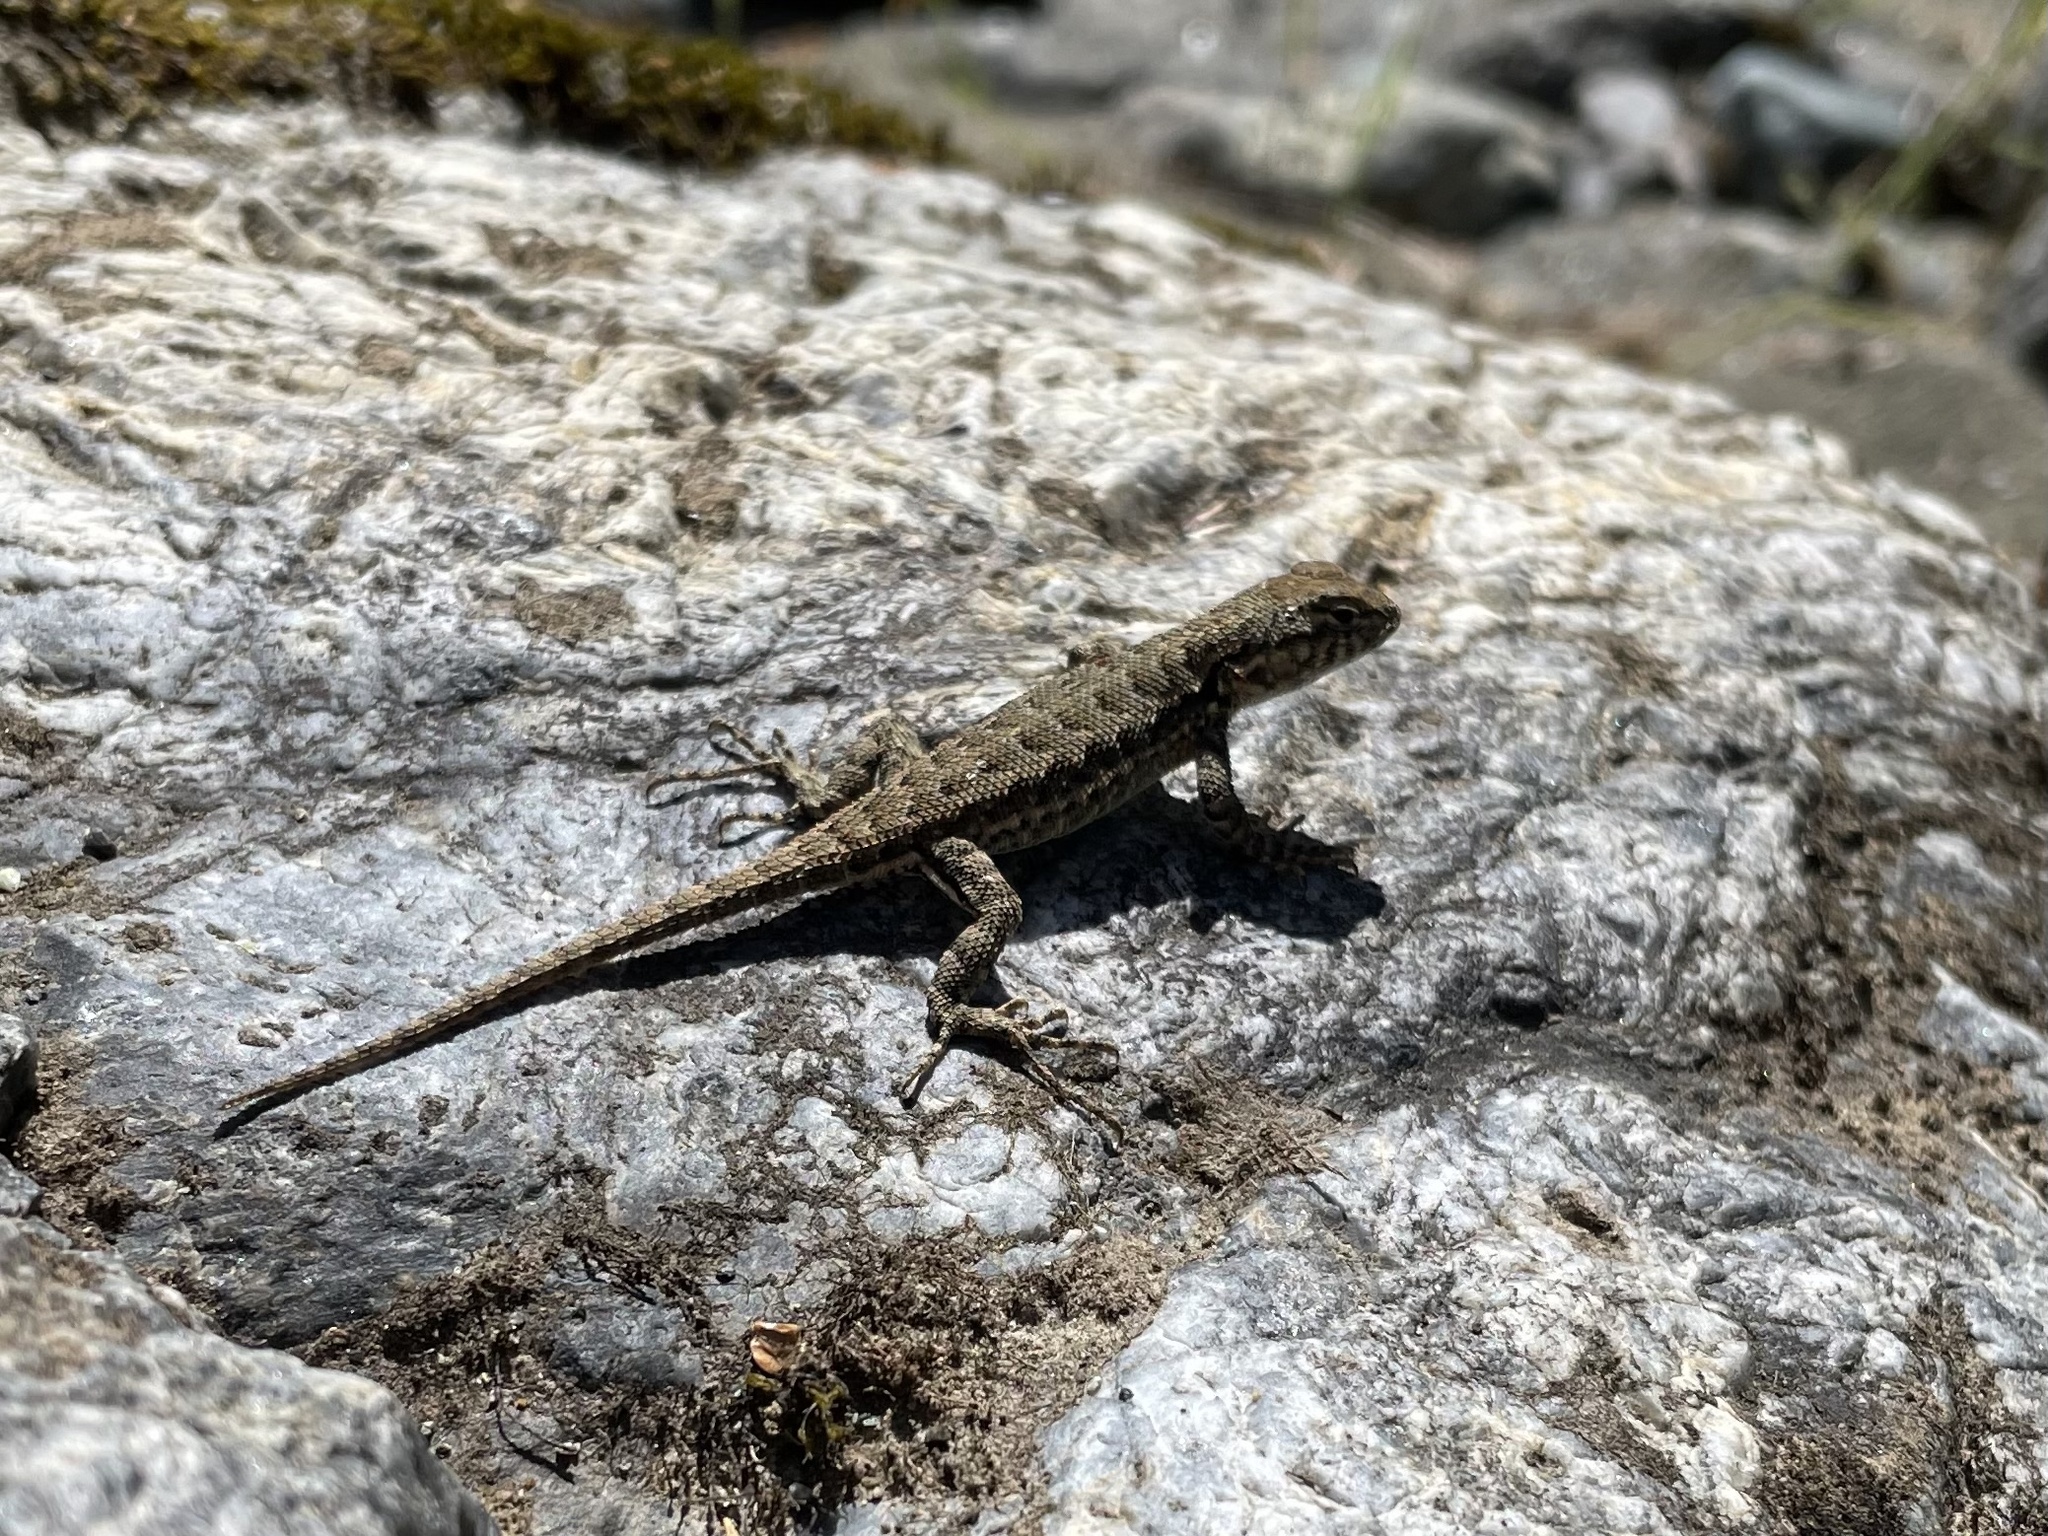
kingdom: Animalia
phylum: Chordata
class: Squamata
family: Phrynosomatidae
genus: Sceloporus
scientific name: Sceloporus occidentalis
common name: Western fence lizard
